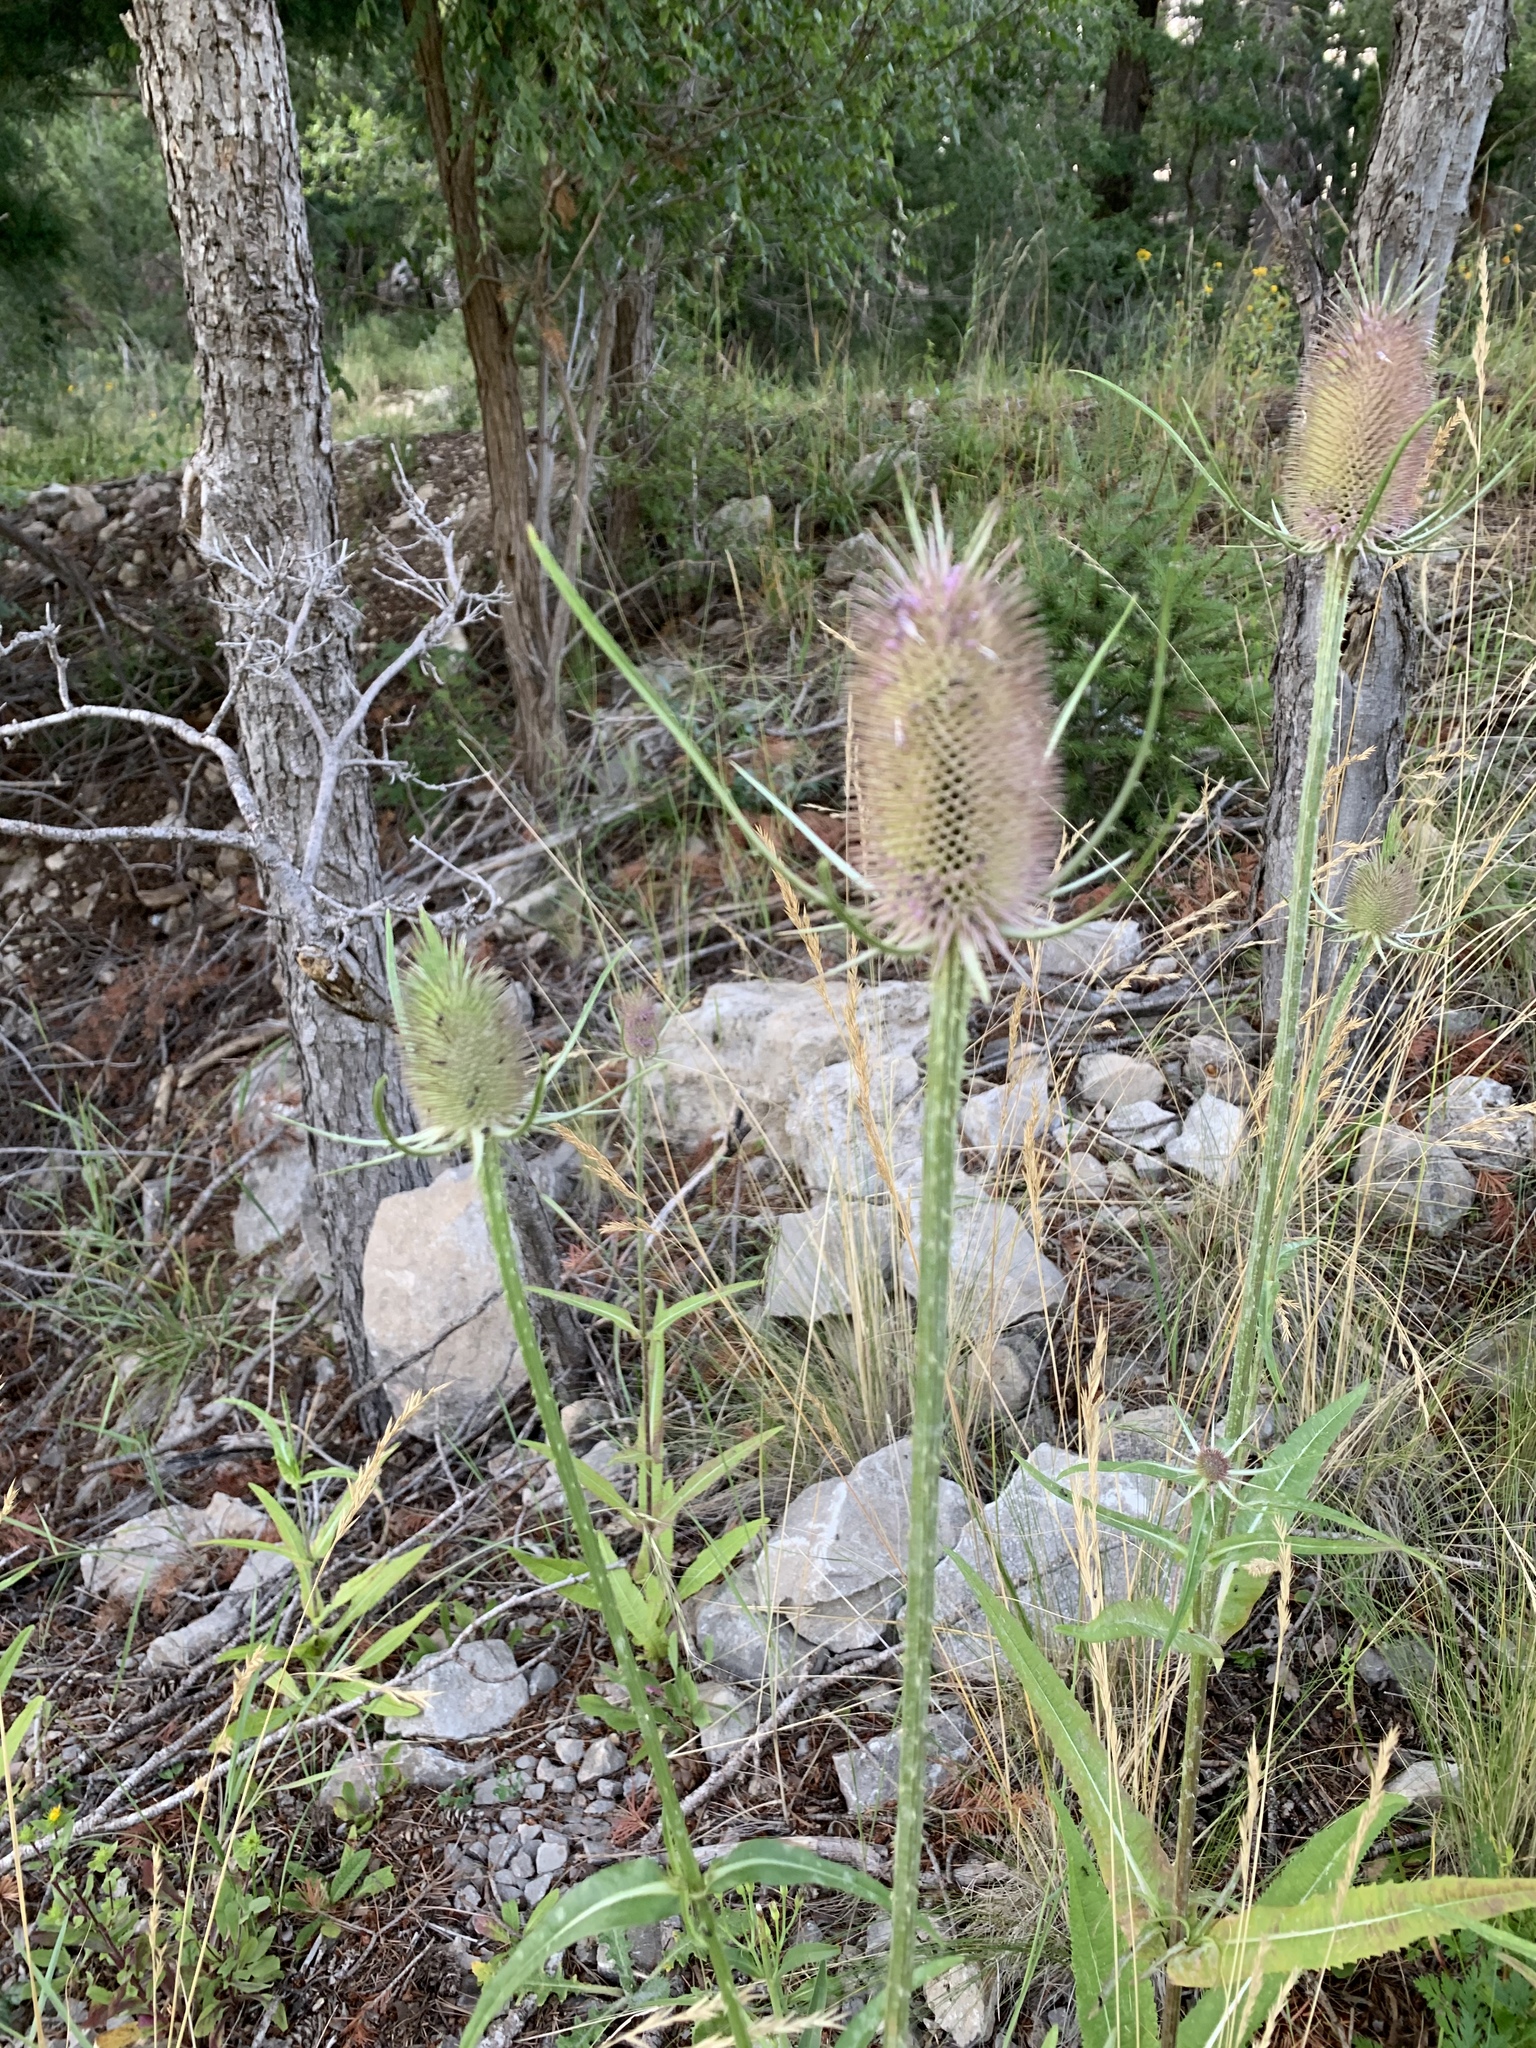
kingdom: Plantae
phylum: Tracheophyta
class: Magnoliopsida
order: Dipsacales
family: Caprifoliaceae
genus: Dipsacus
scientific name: Dipsacus fullonum
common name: Teasel
